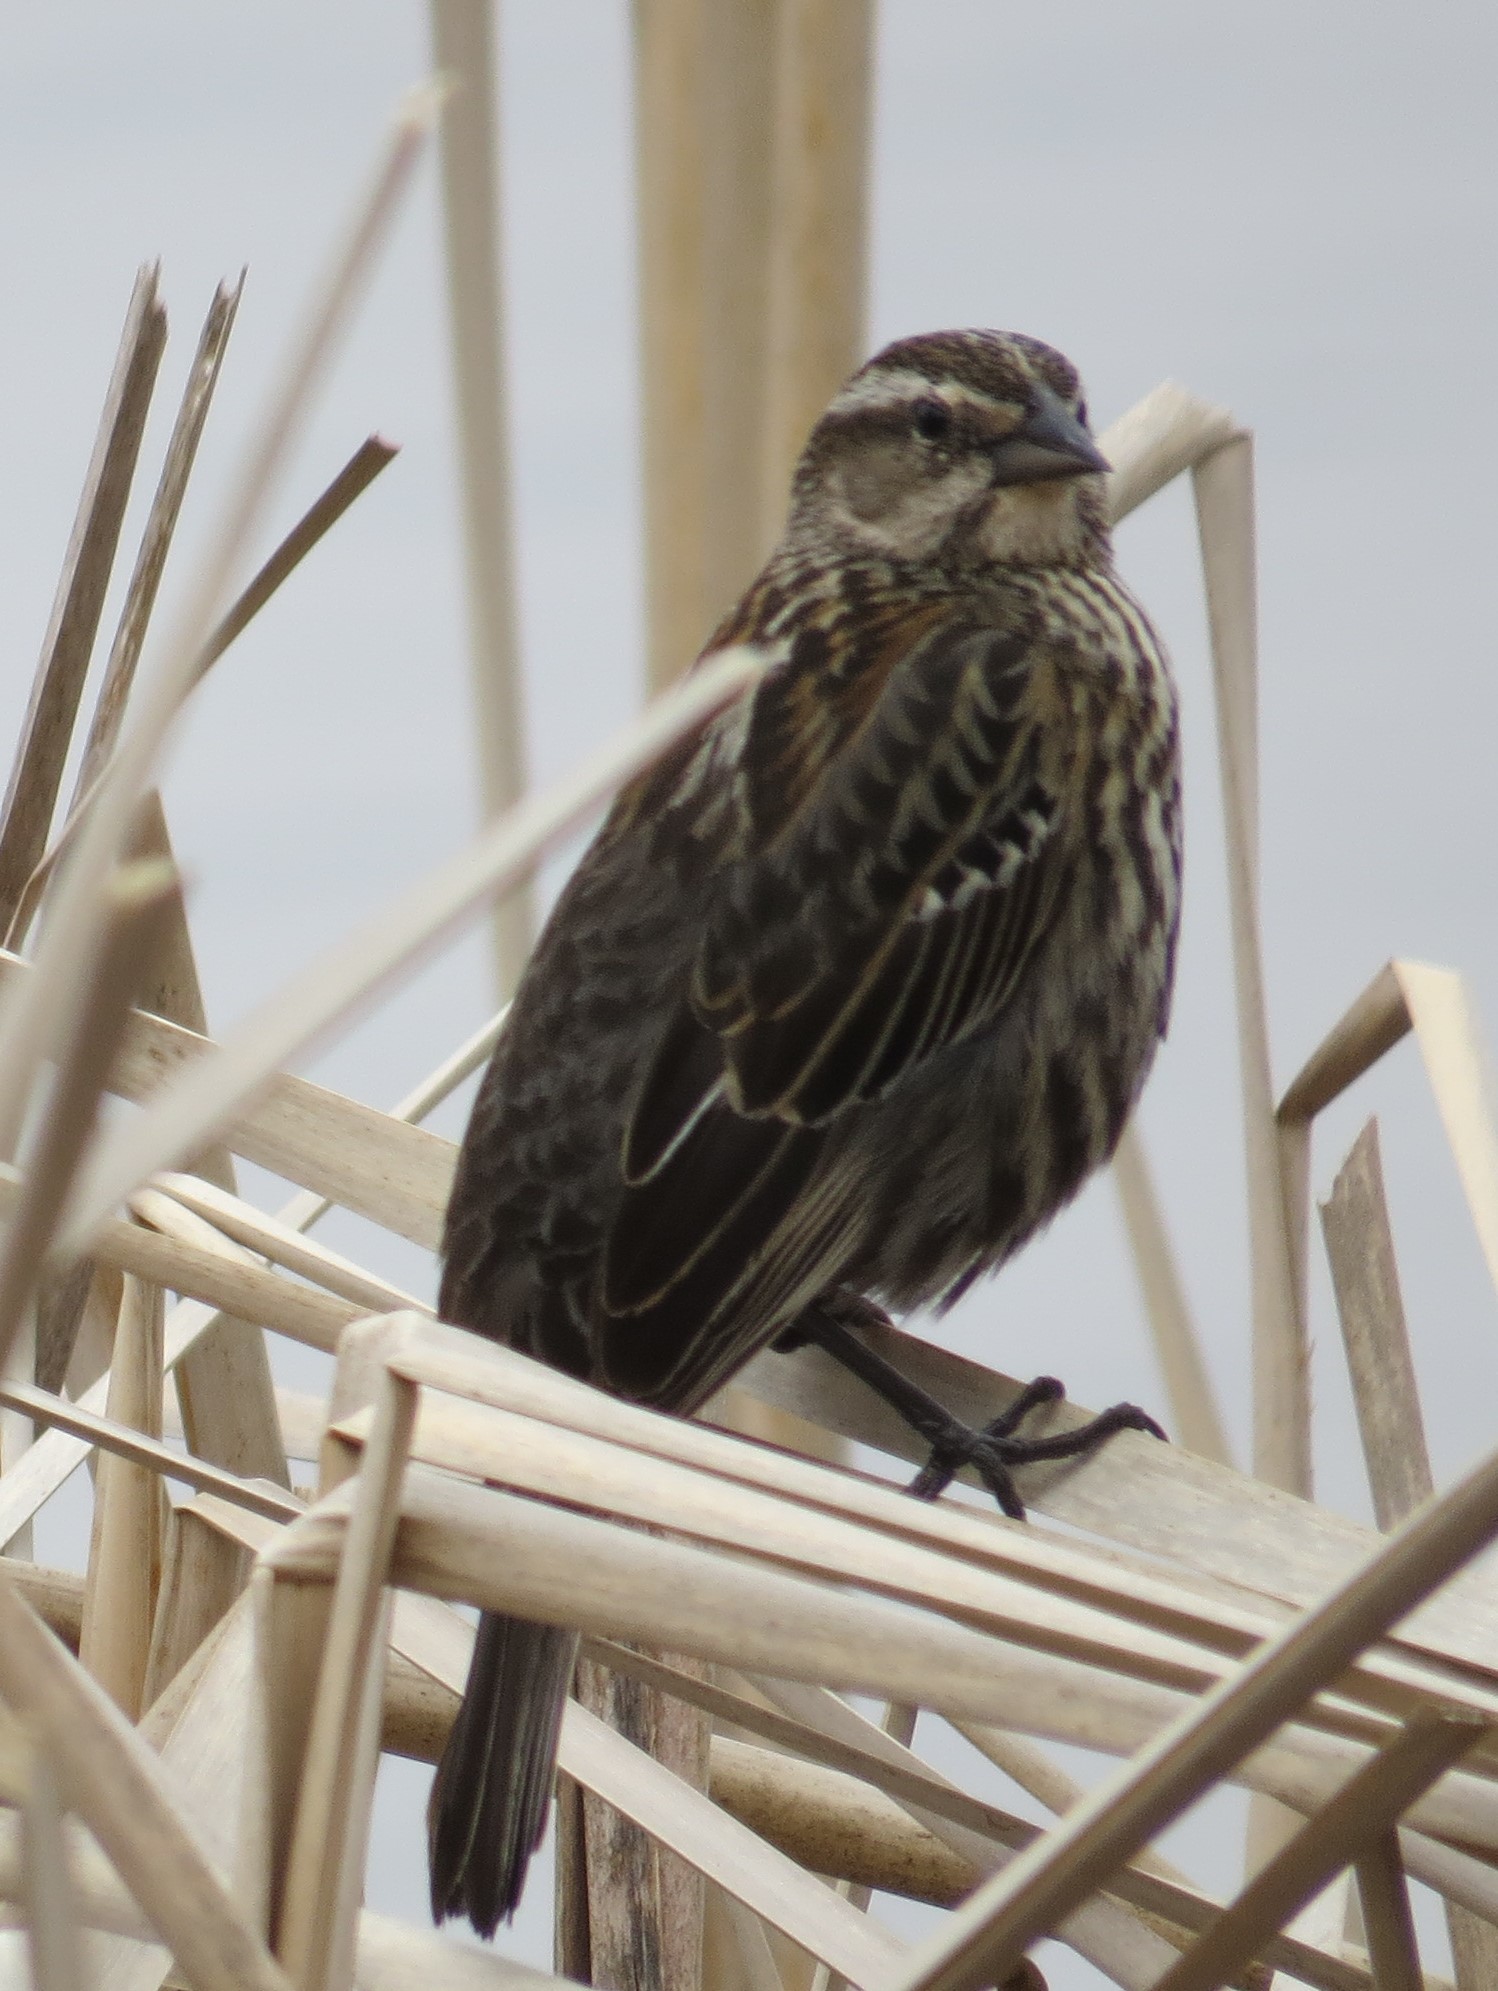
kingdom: Animalia
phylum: Chordata
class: Aves
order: Passeriformes
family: Icteridae
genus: Agelaius
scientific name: Agelaius phoeniceus
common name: Red-winged blackbird
